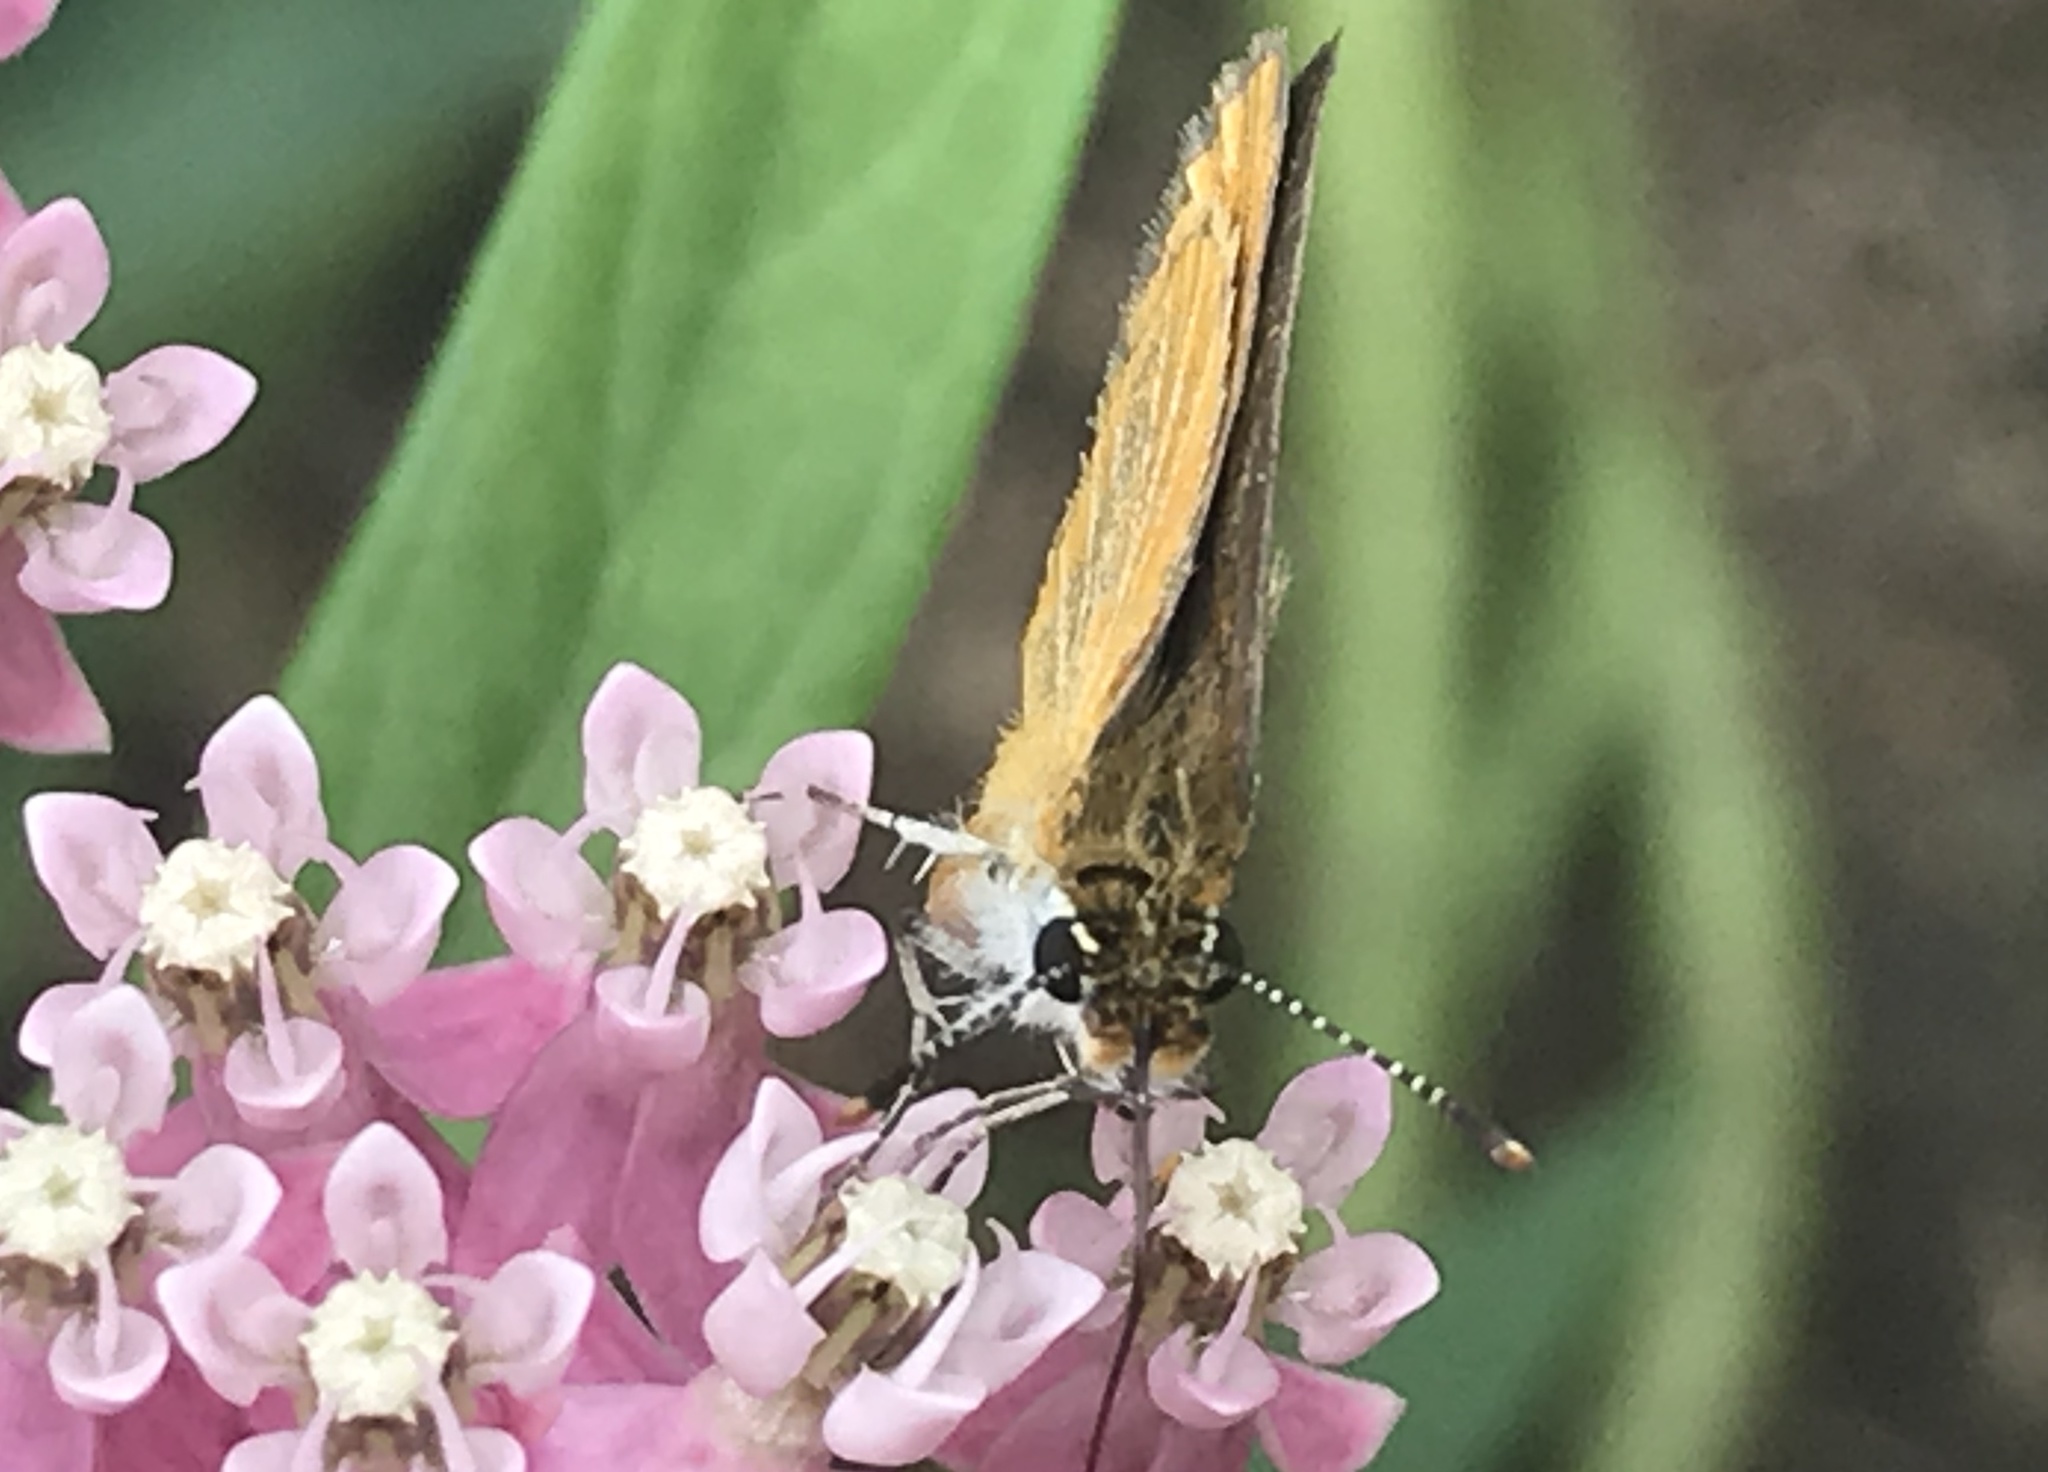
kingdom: Animalia
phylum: Arthropoda
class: Insecta
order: Lepidoptera
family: Hesperiidae
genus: Ancyloxypha
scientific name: Ancyloxypha numitor
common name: Least skipper
